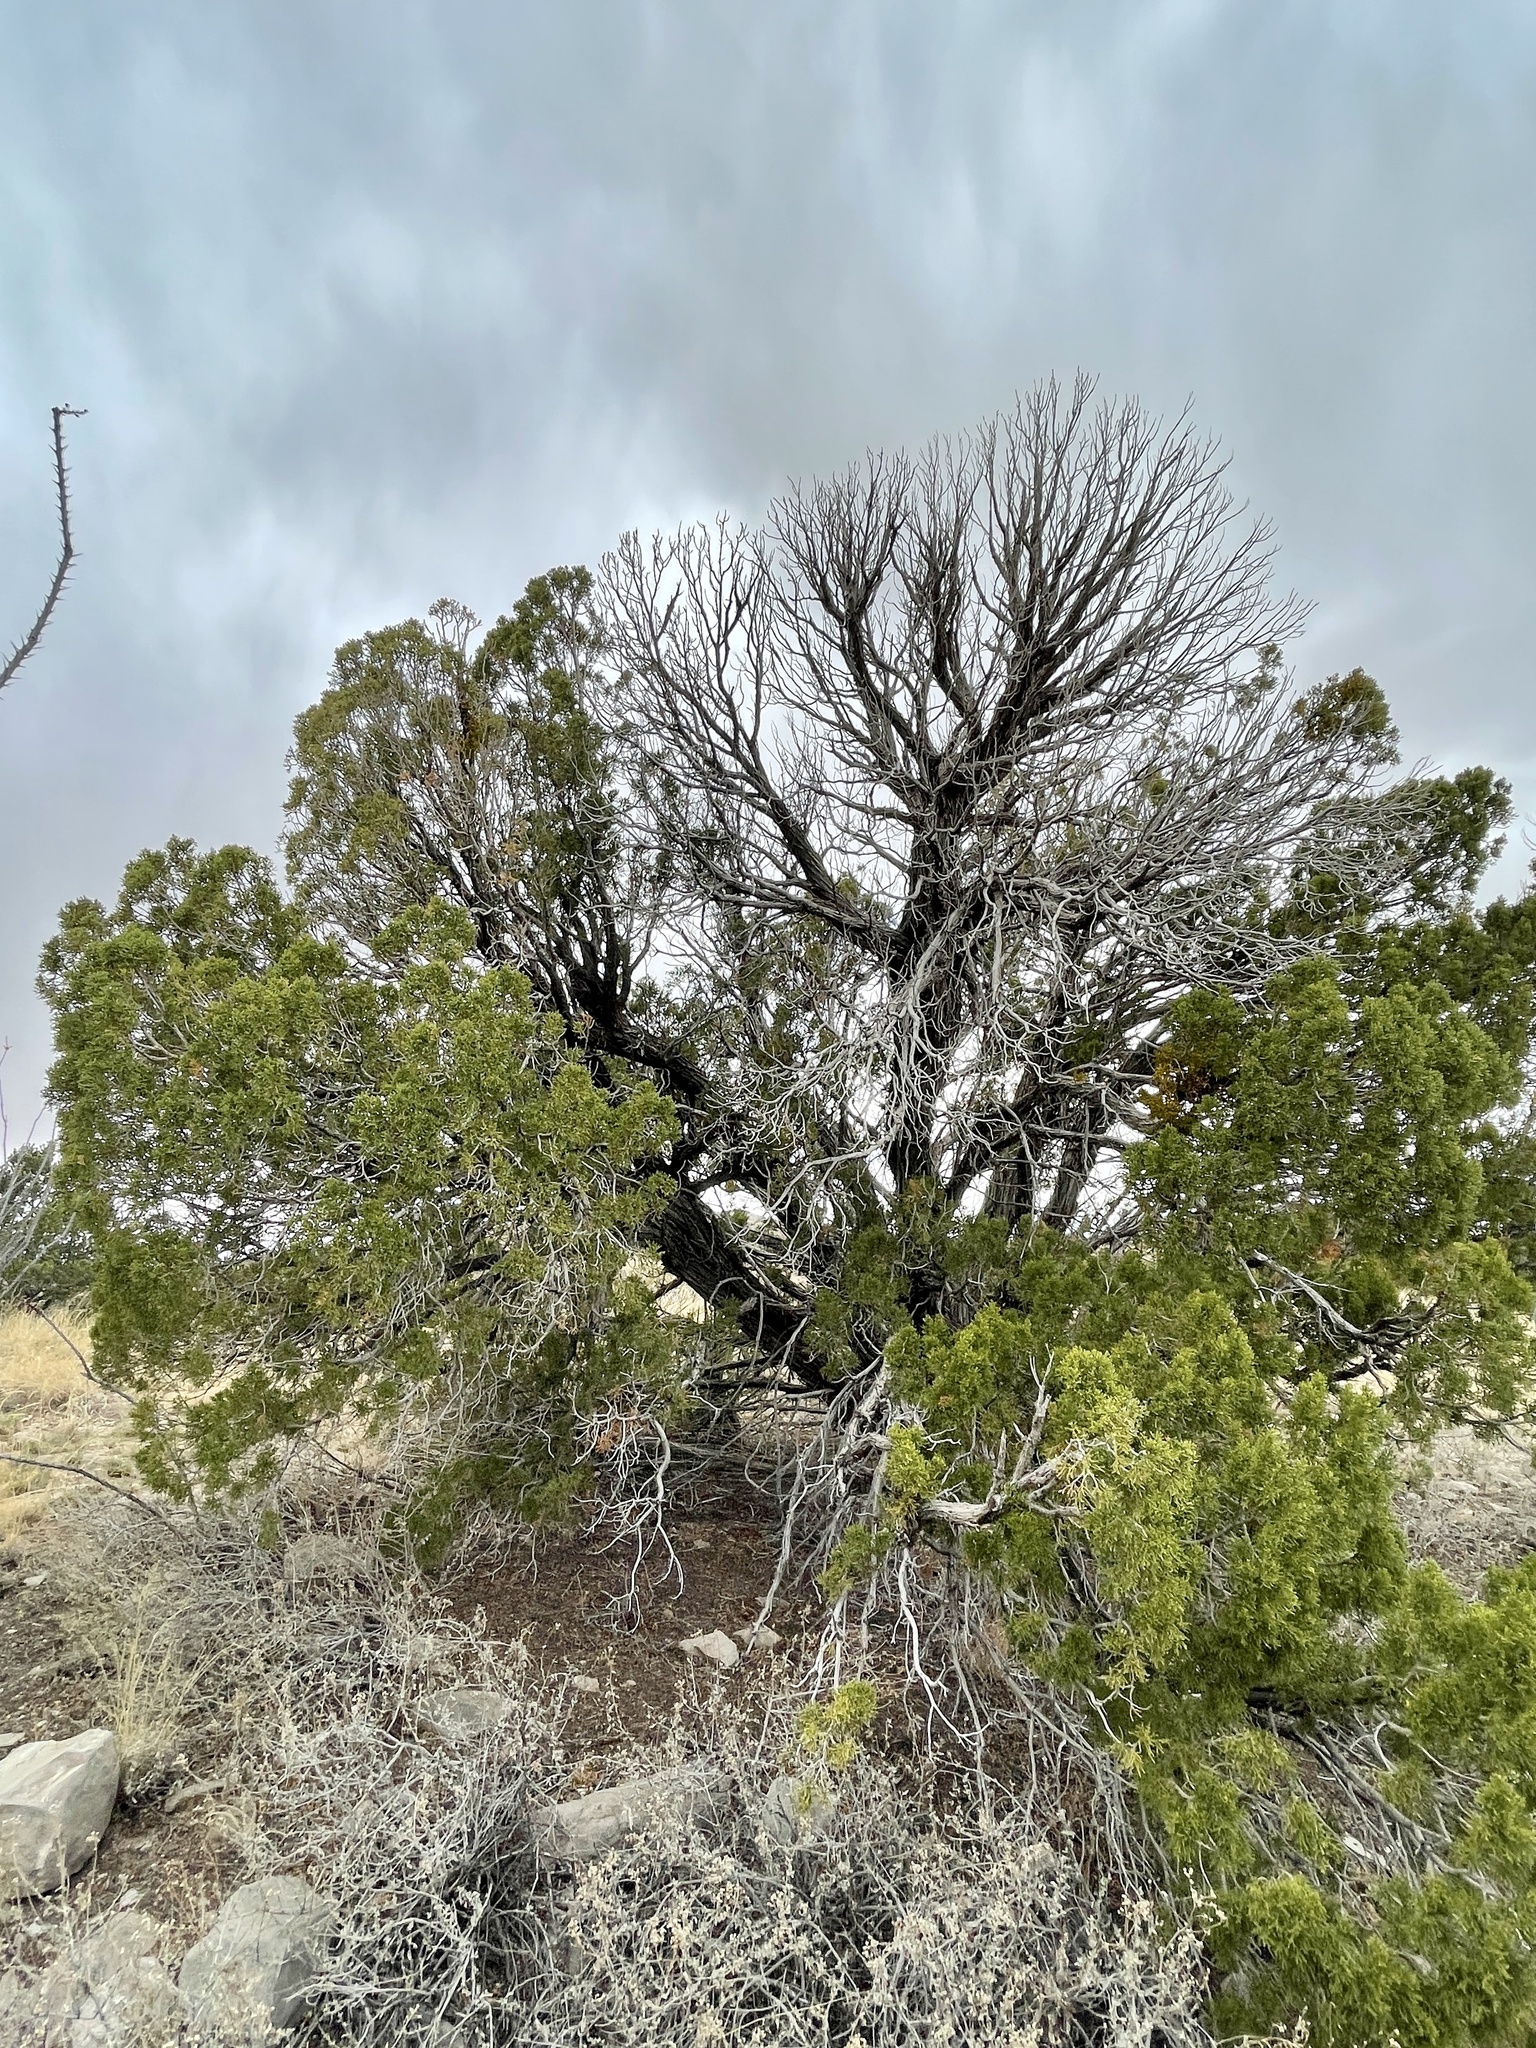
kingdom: Plantae
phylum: Tracheophyta
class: Pinopsida
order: Pinales
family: Cupressaceae
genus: Juniperus
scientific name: Juniperus monosperma
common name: One-seed juniper
